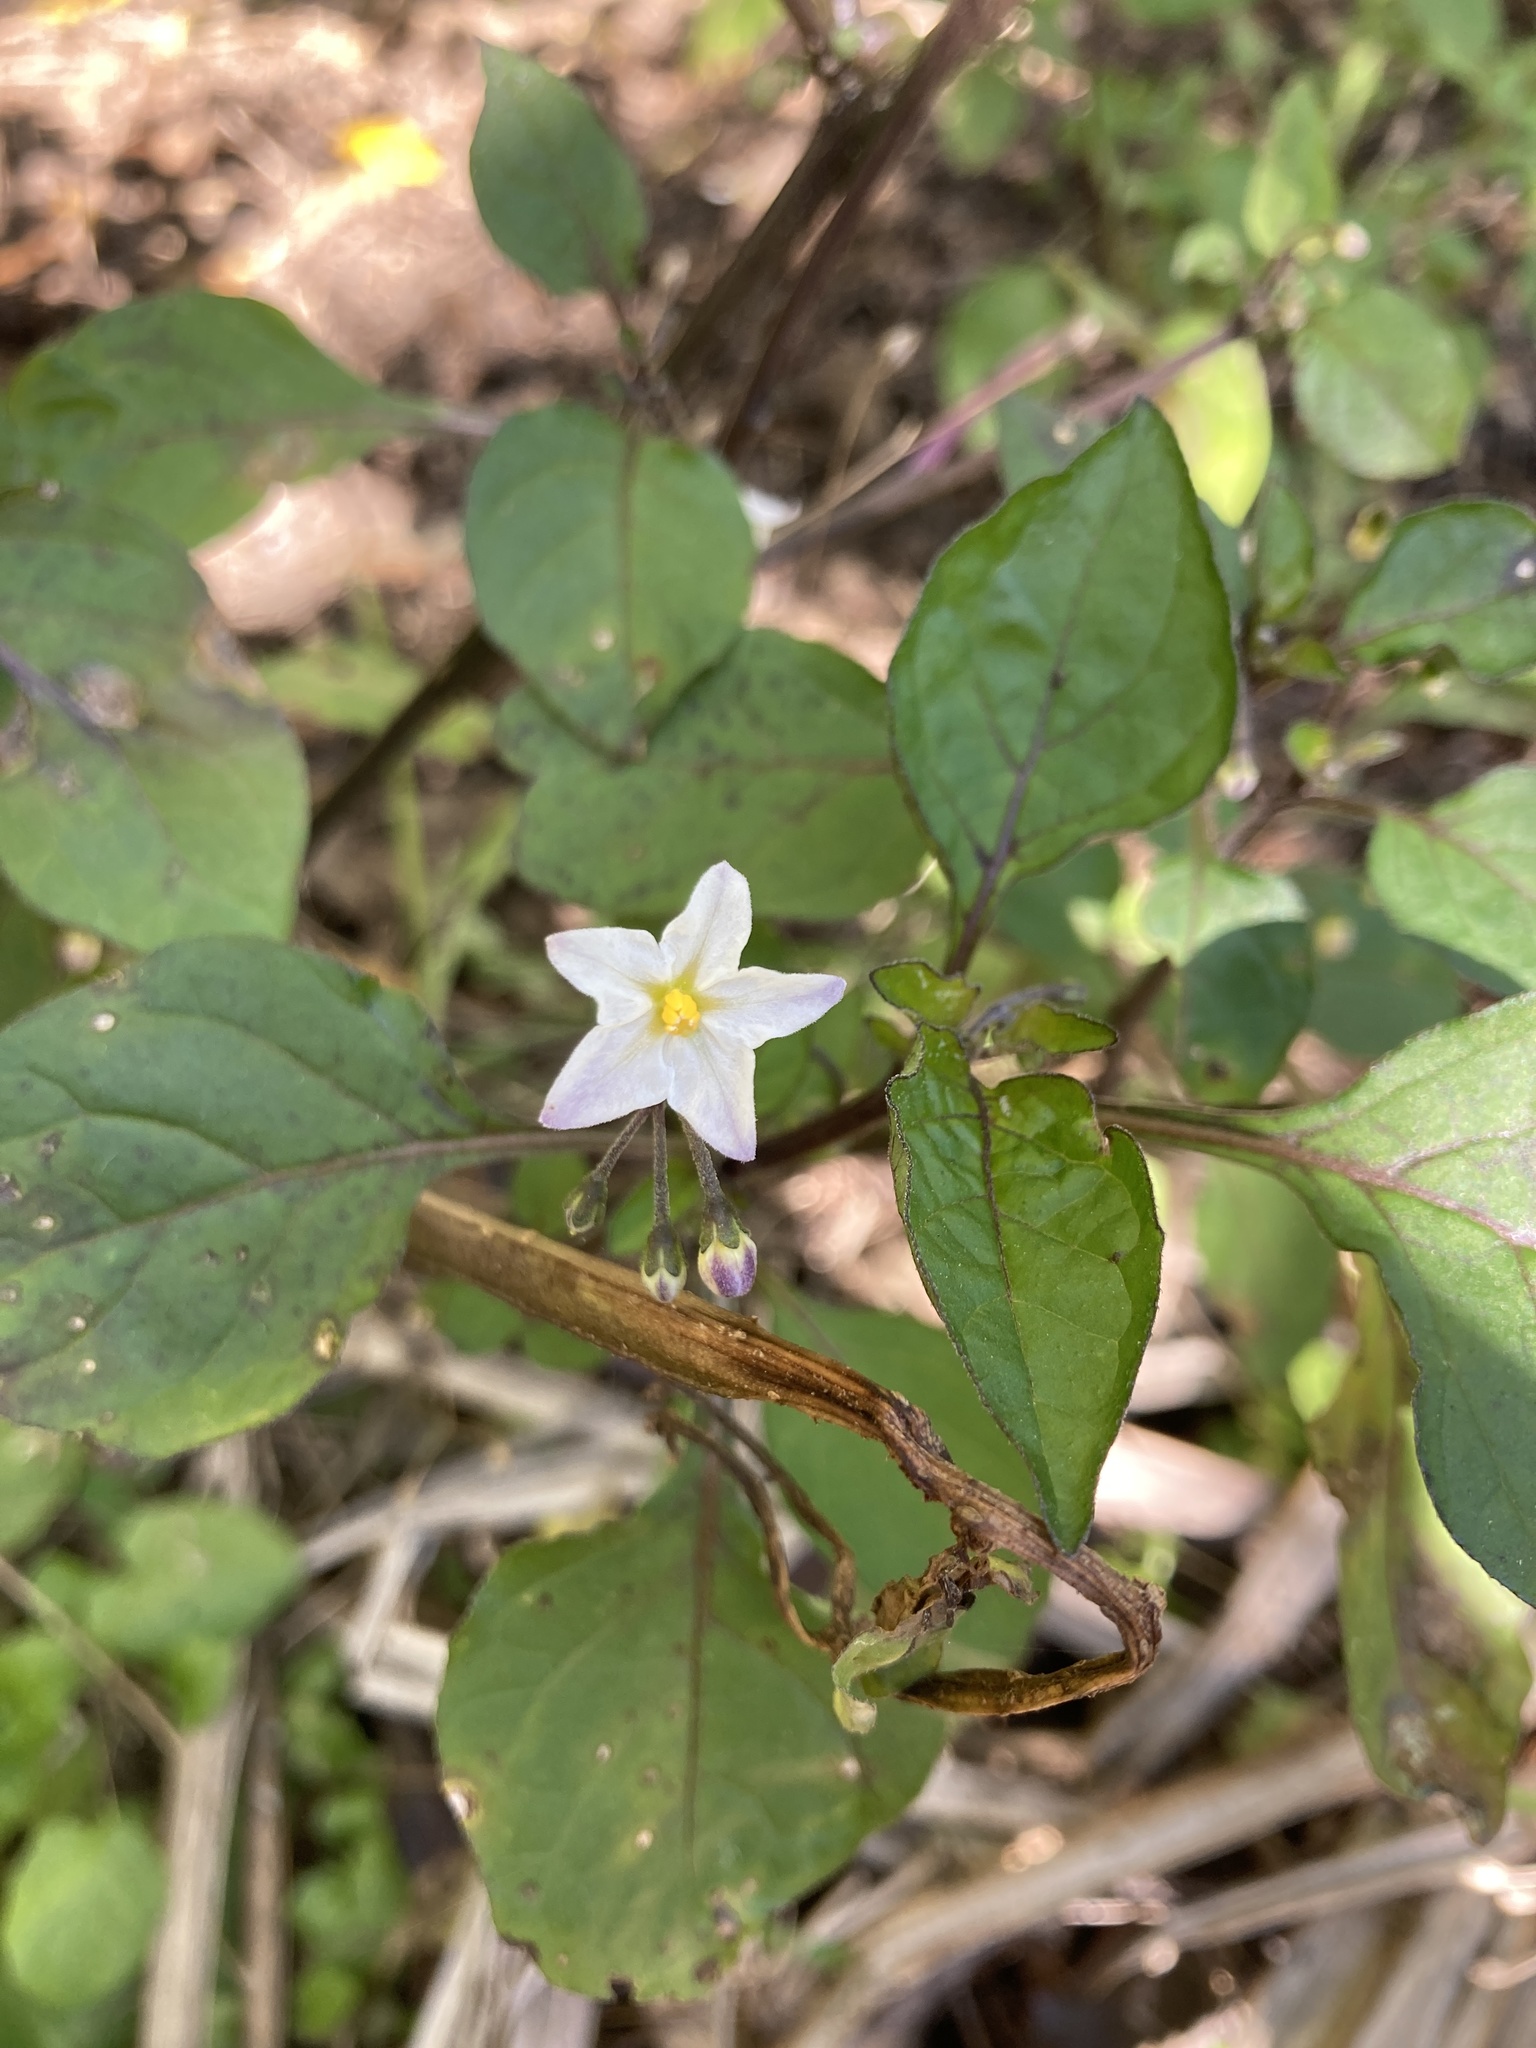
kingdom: Plantae
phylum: Tracheophyta
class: Magnoliopsida
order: Solanales
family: Solanaceae
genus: Solanum
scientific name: Solanum nigrum
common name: Black nightshade
